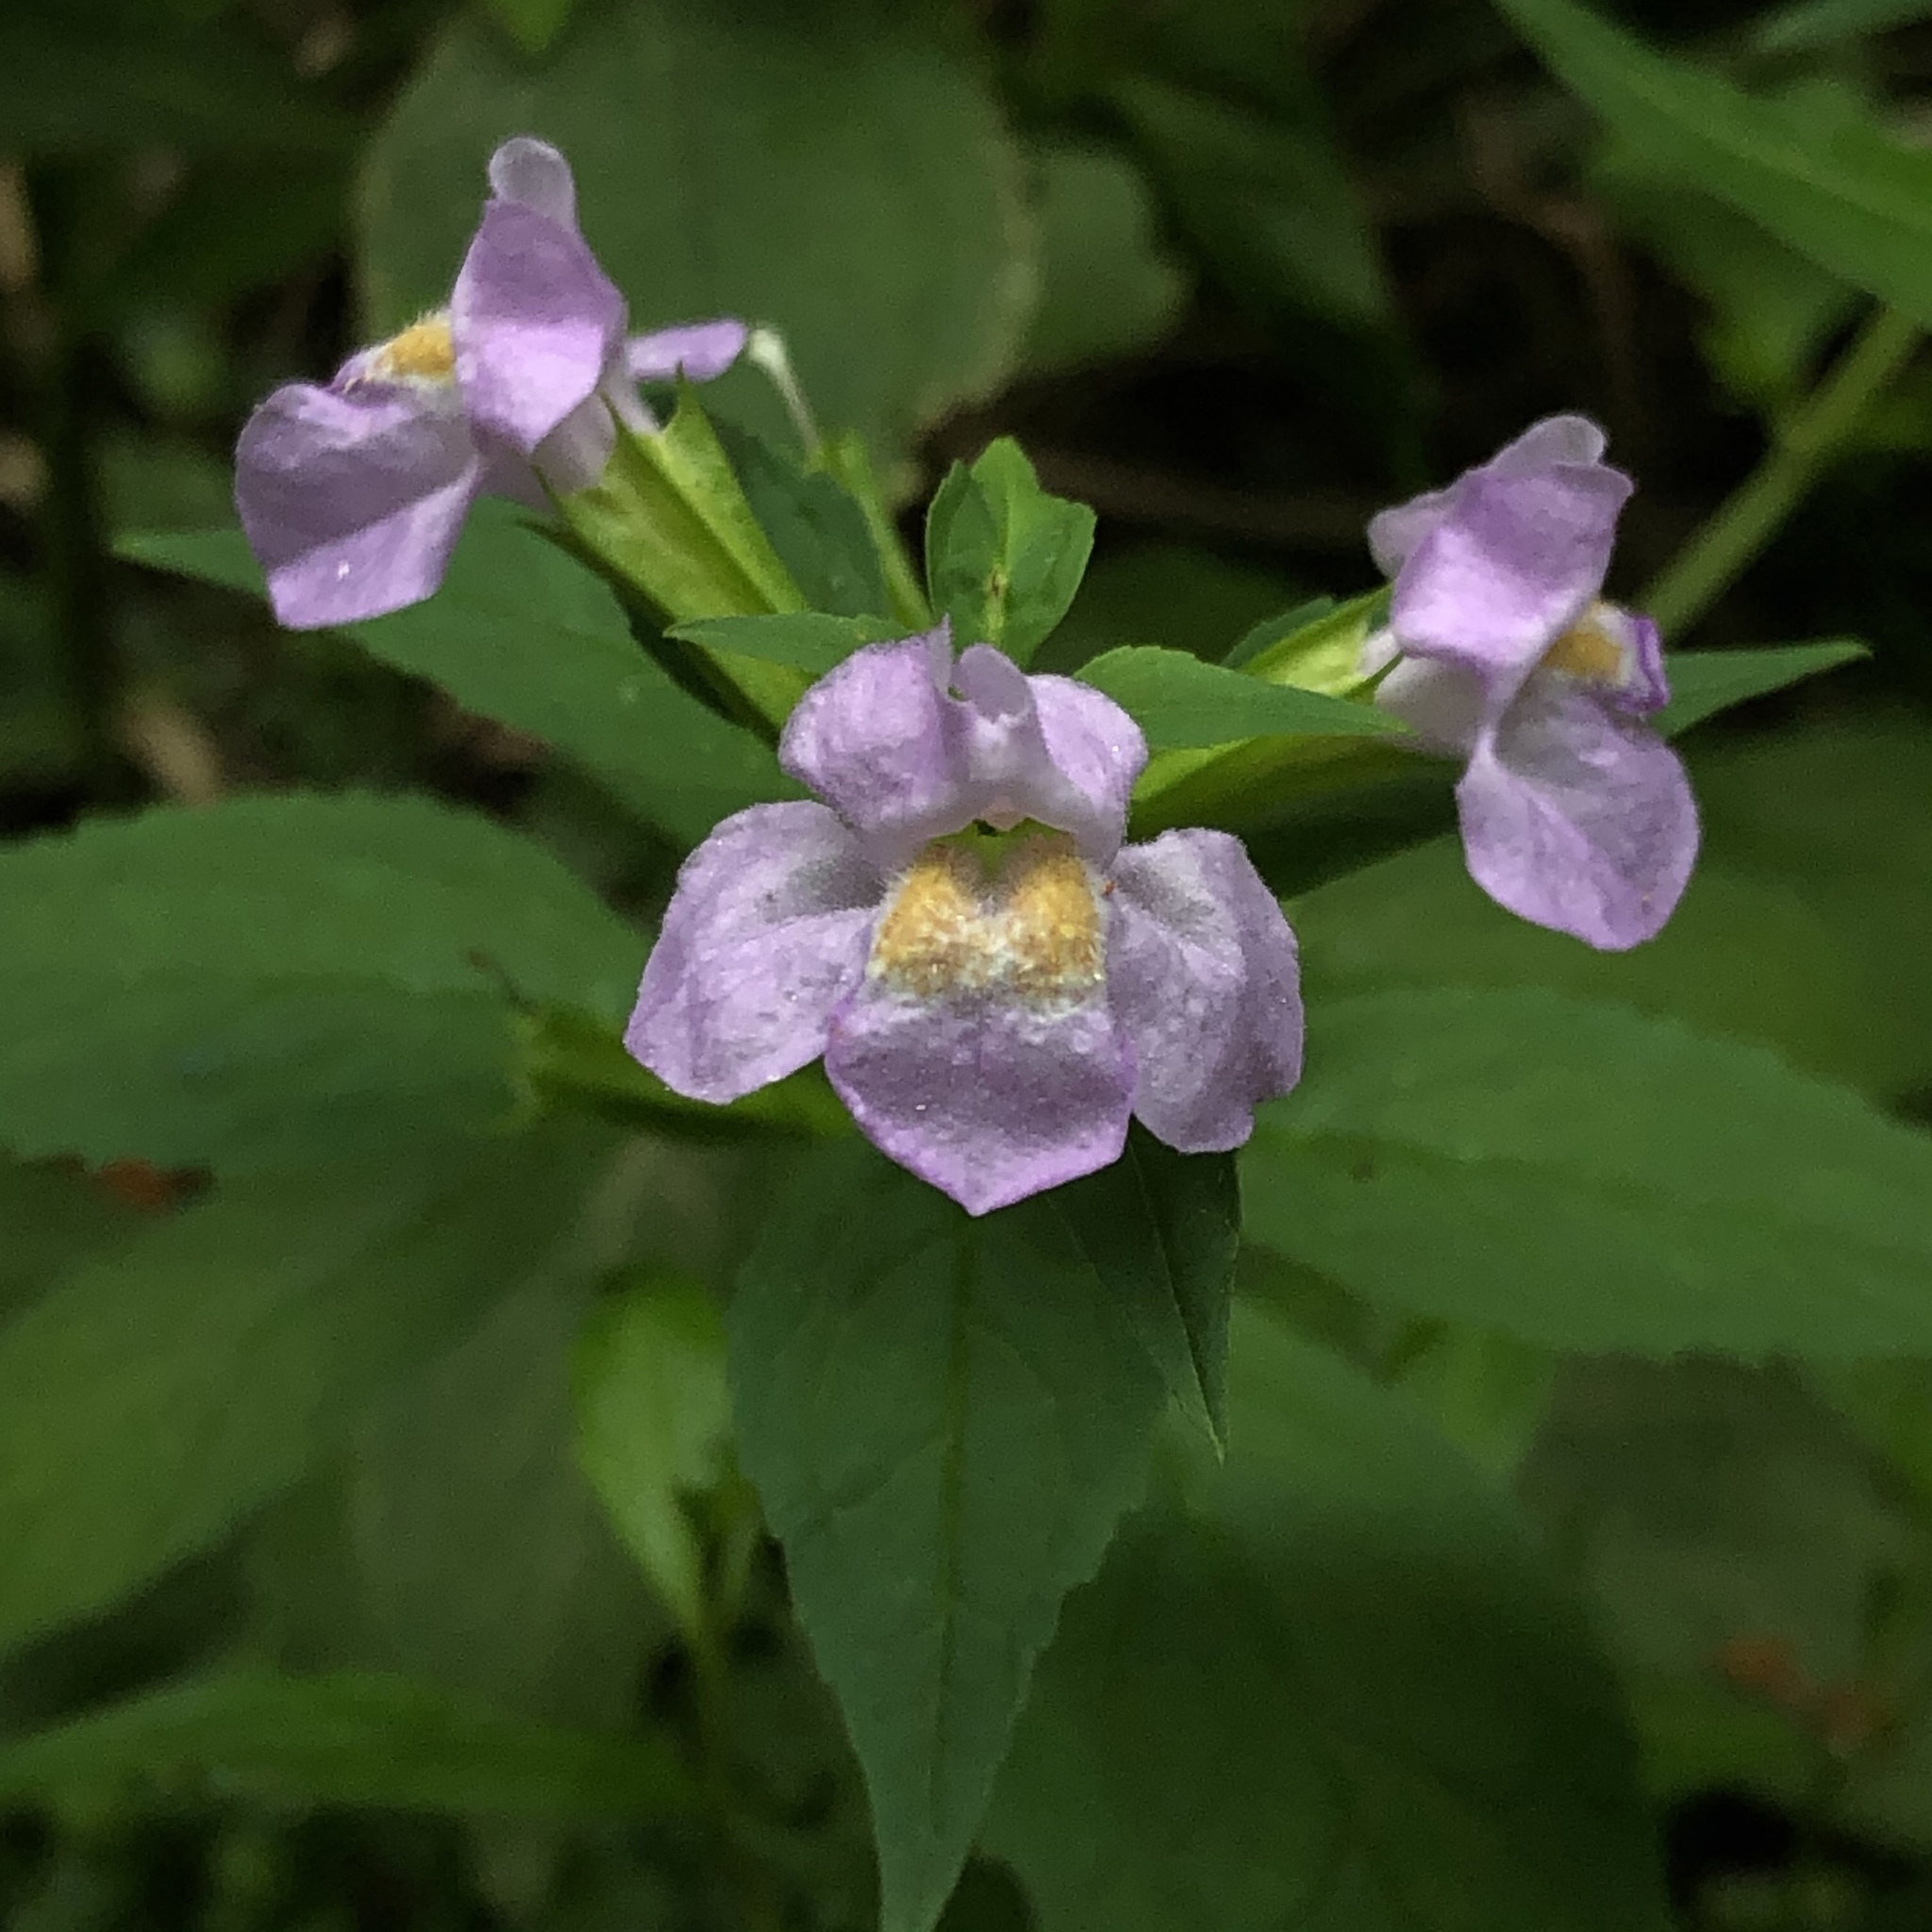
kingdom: Plantae
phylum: Tracheophyta
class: Magnoliopsida
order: Lamiales
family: Phrymaceae
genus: Mimulus
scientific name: Mimulus alatus
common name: Sharp-wing monkey-flower
